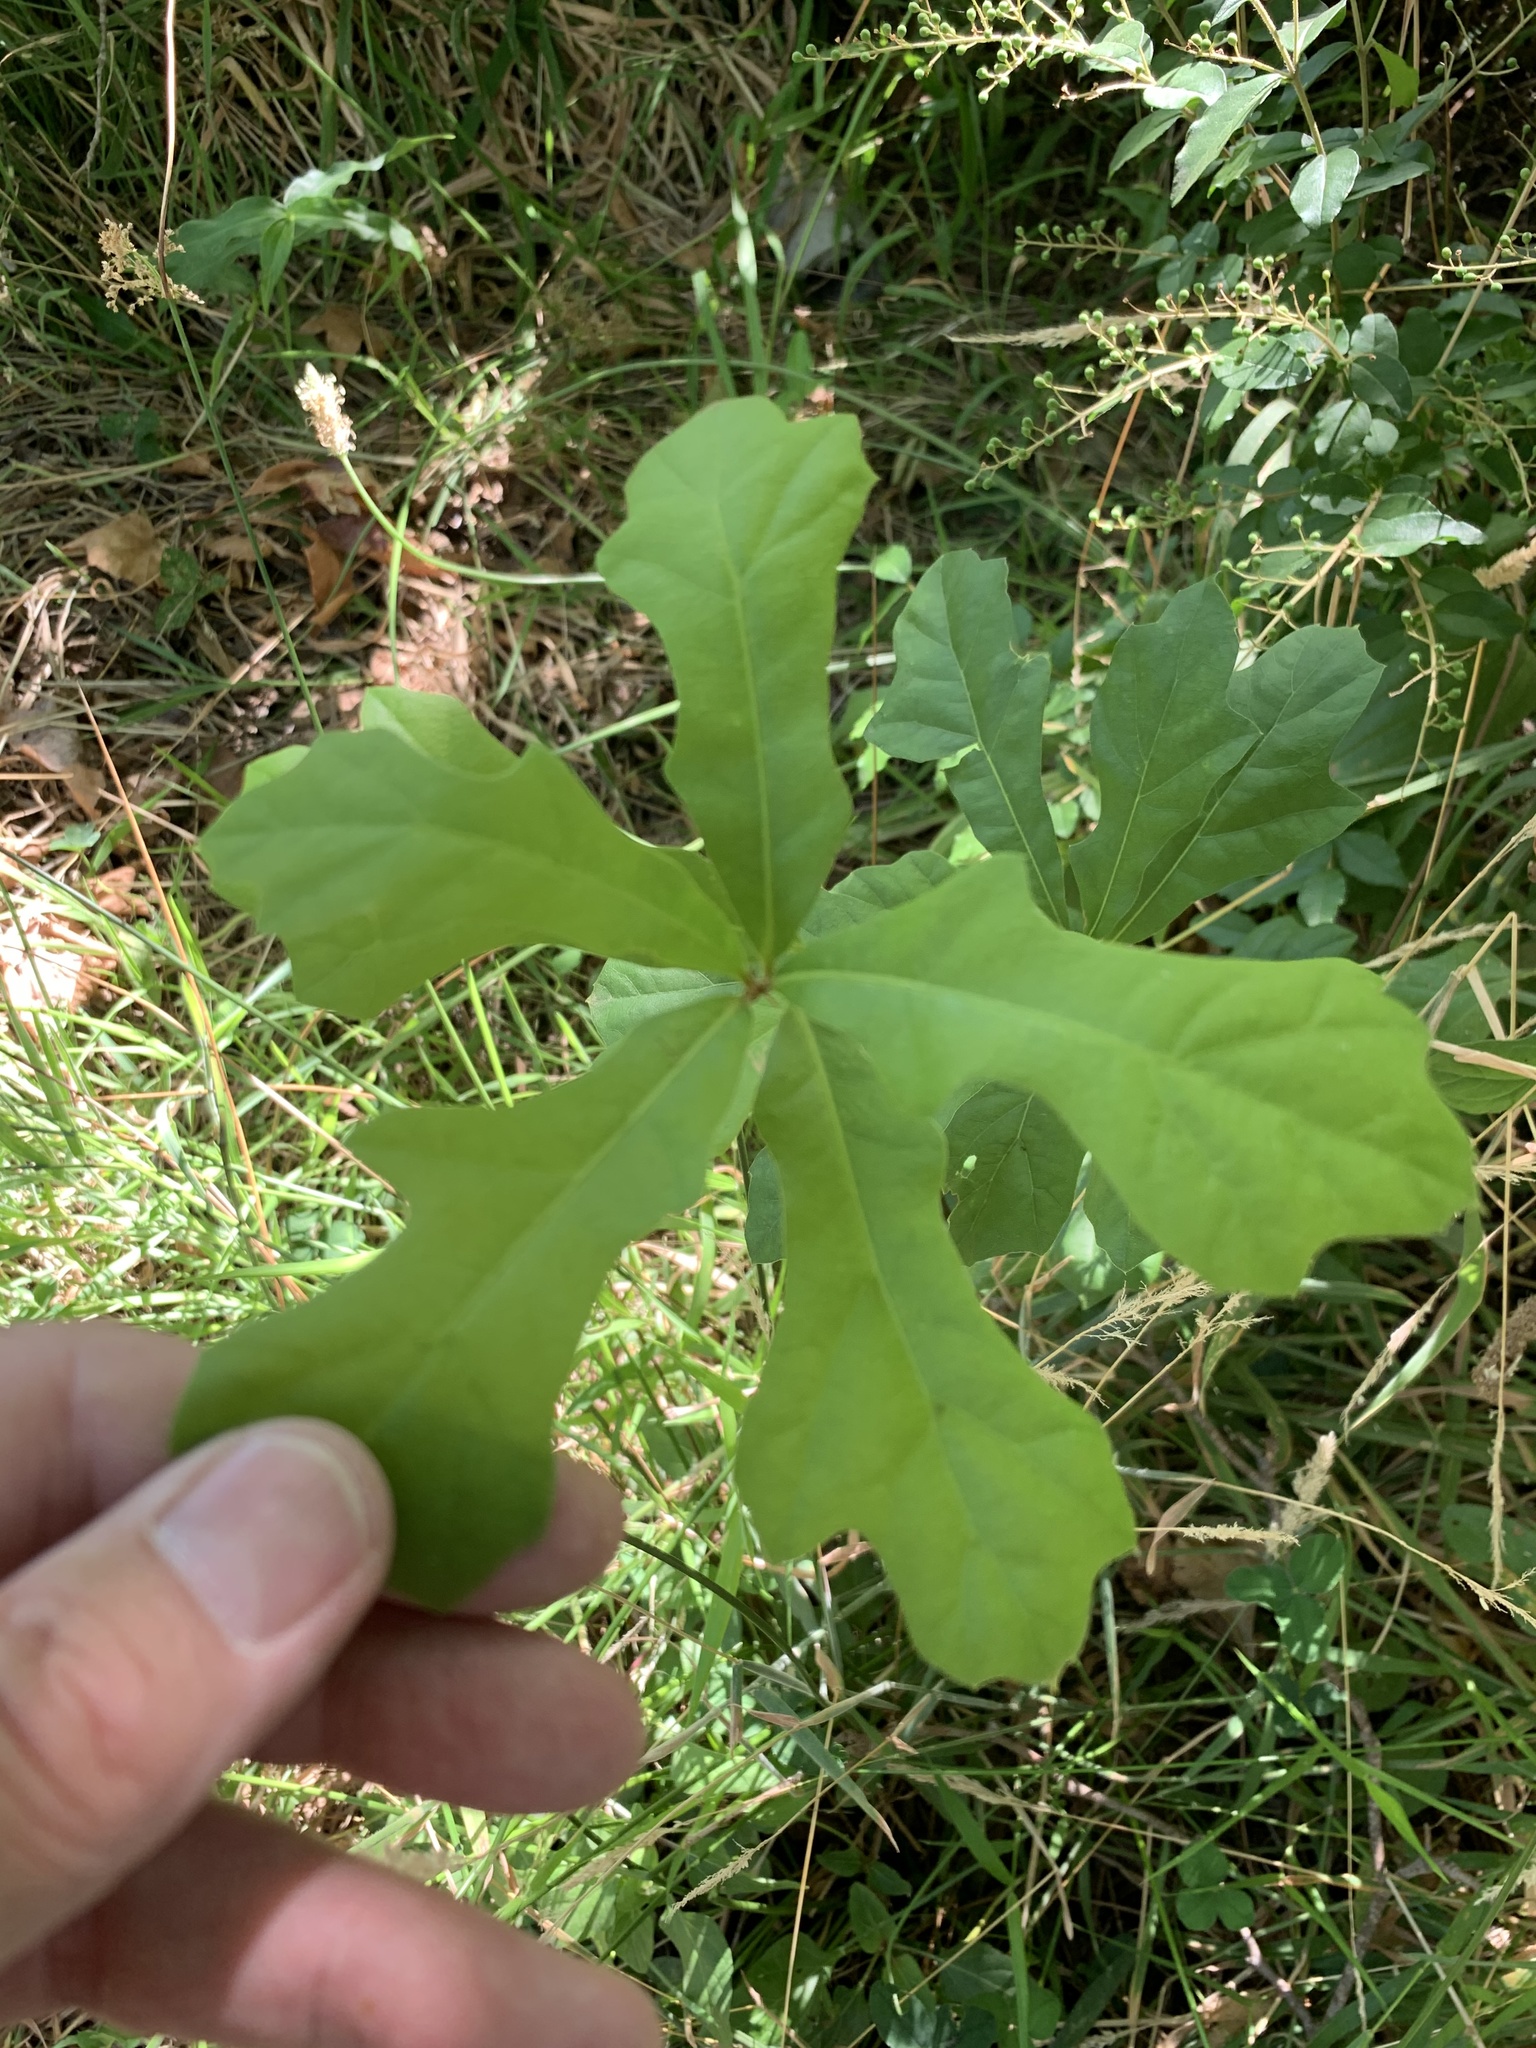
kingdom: Plantae
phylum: Tracheophyta
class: Magnoliopsida
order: Fagales
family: Fagaceae
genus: Quercus
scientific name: Quercus nigra
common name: Water oak
